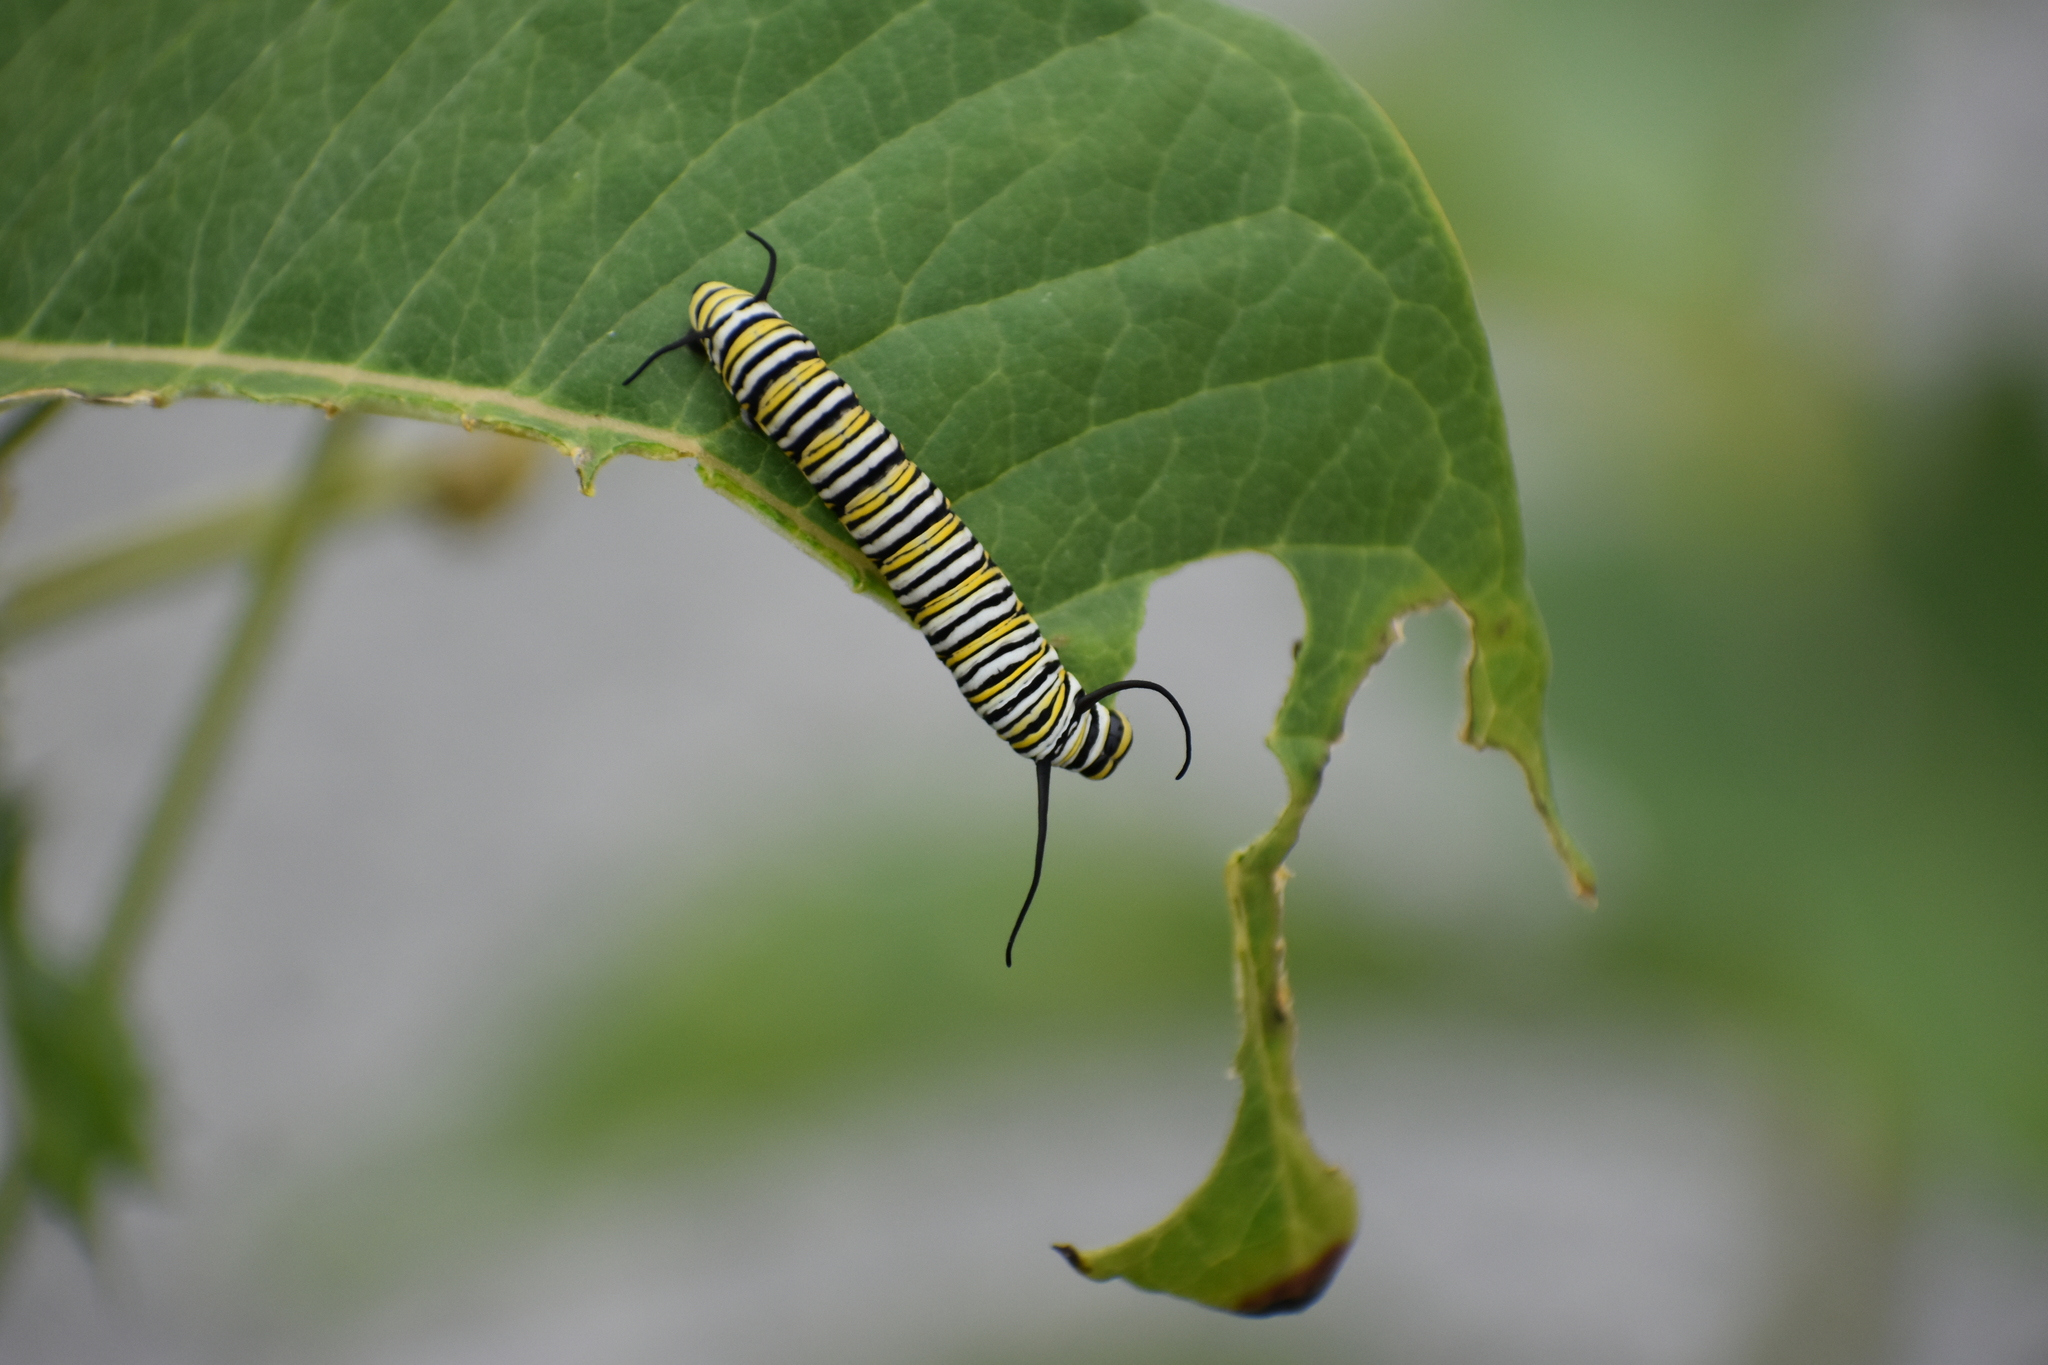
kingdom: Animalia
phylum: Arthropoda
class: Insecta
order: Lepidoptera
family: Nymphalidae
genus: Danaus
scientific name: Danaus plexippus
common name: Monarch
